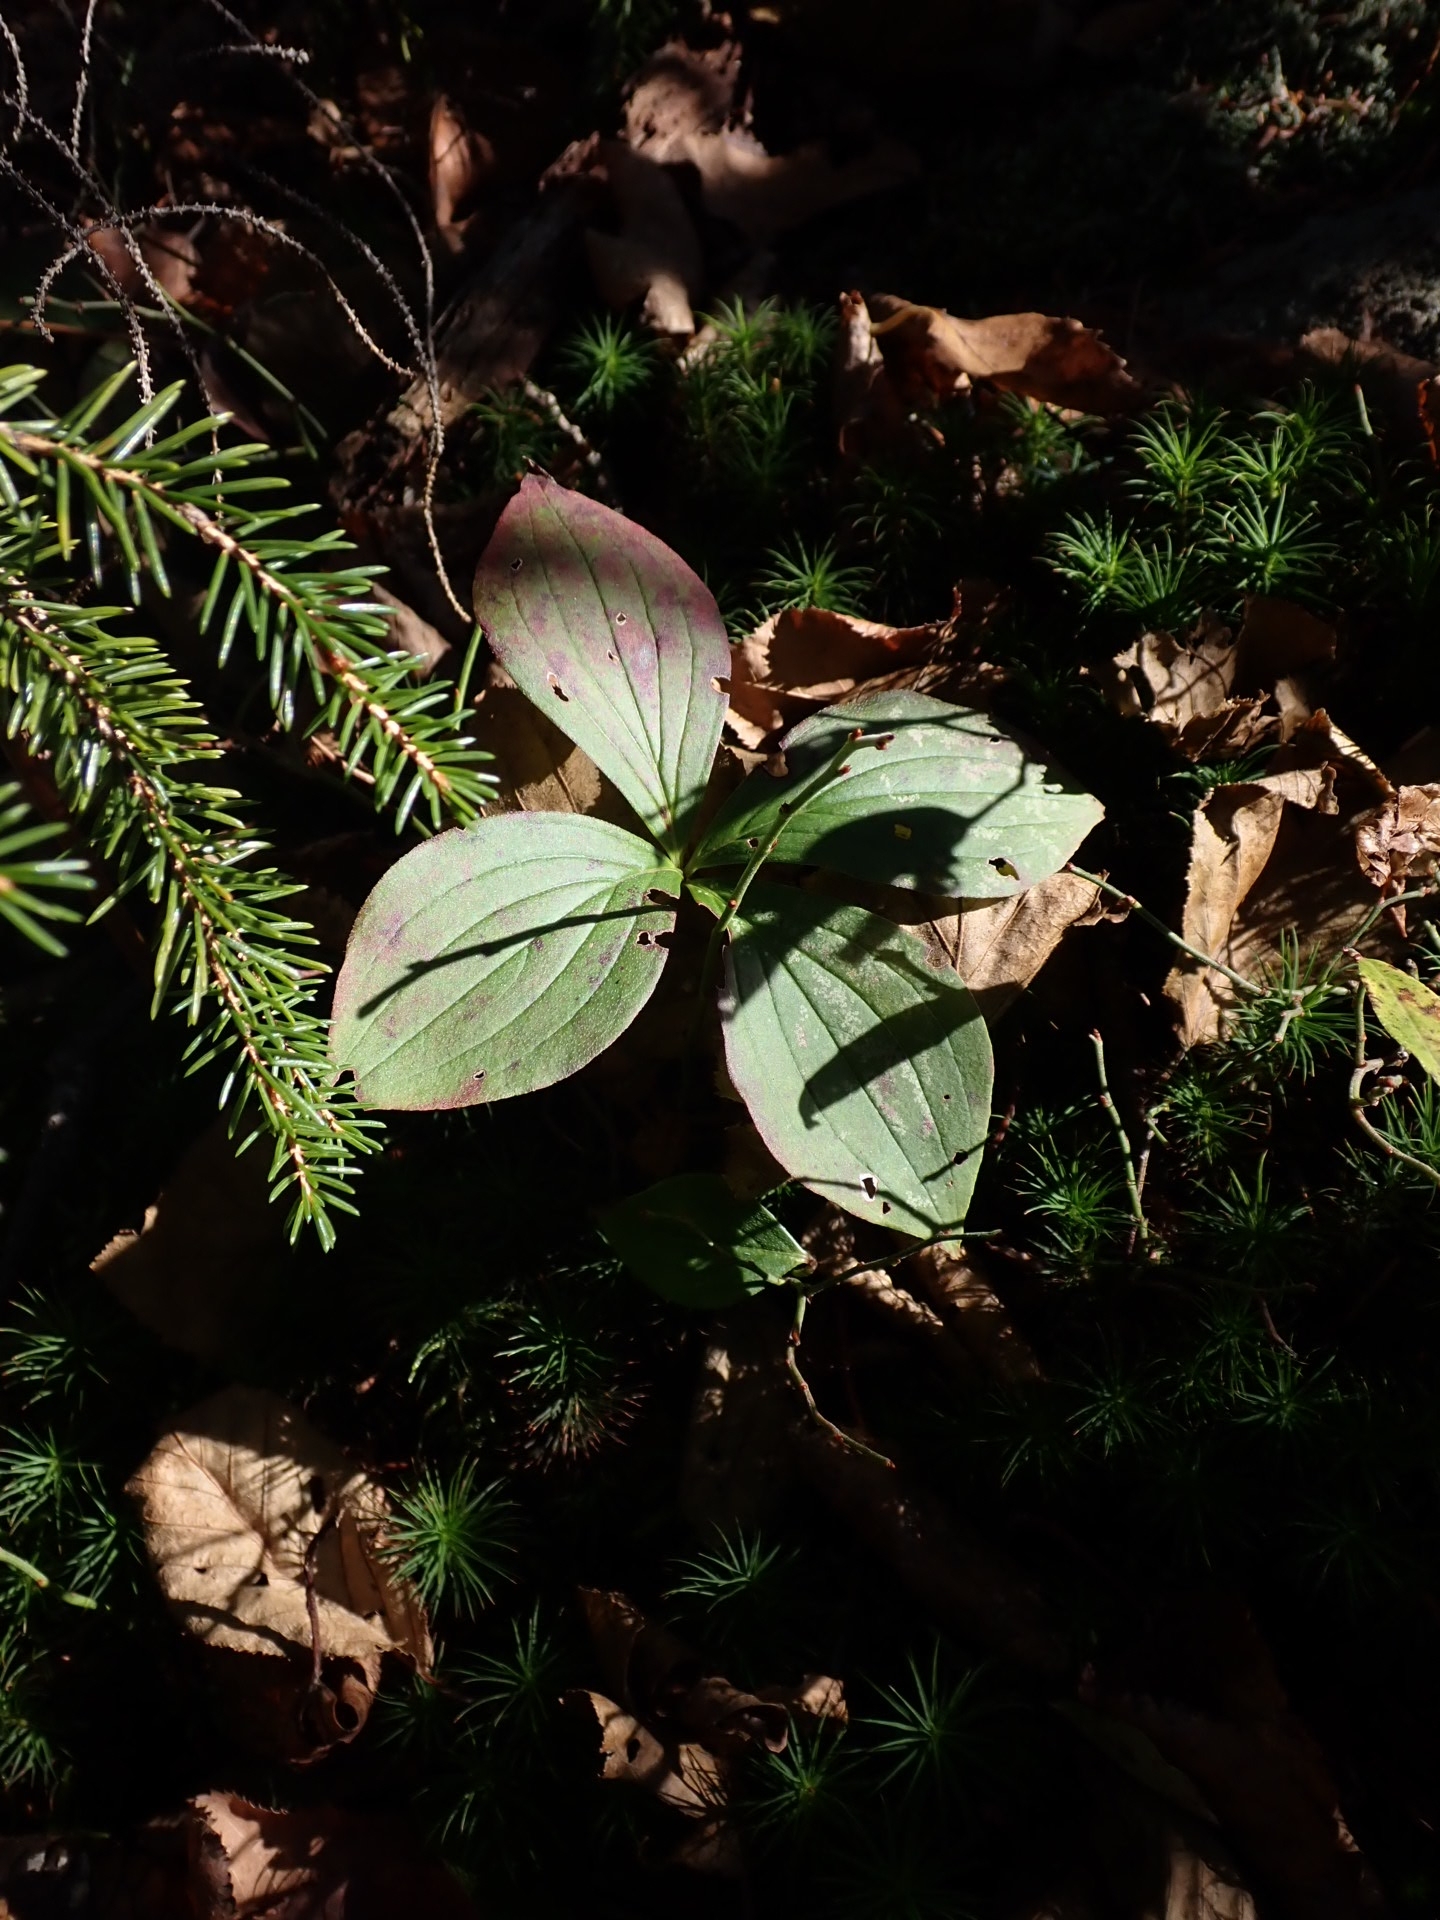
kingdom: Plantae
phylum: Tracheophyta
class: Magnoliopsida
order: Cornales
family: Cornaceae
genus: Cornus
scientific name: Cornus canadensis
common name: Creeping dogwood
